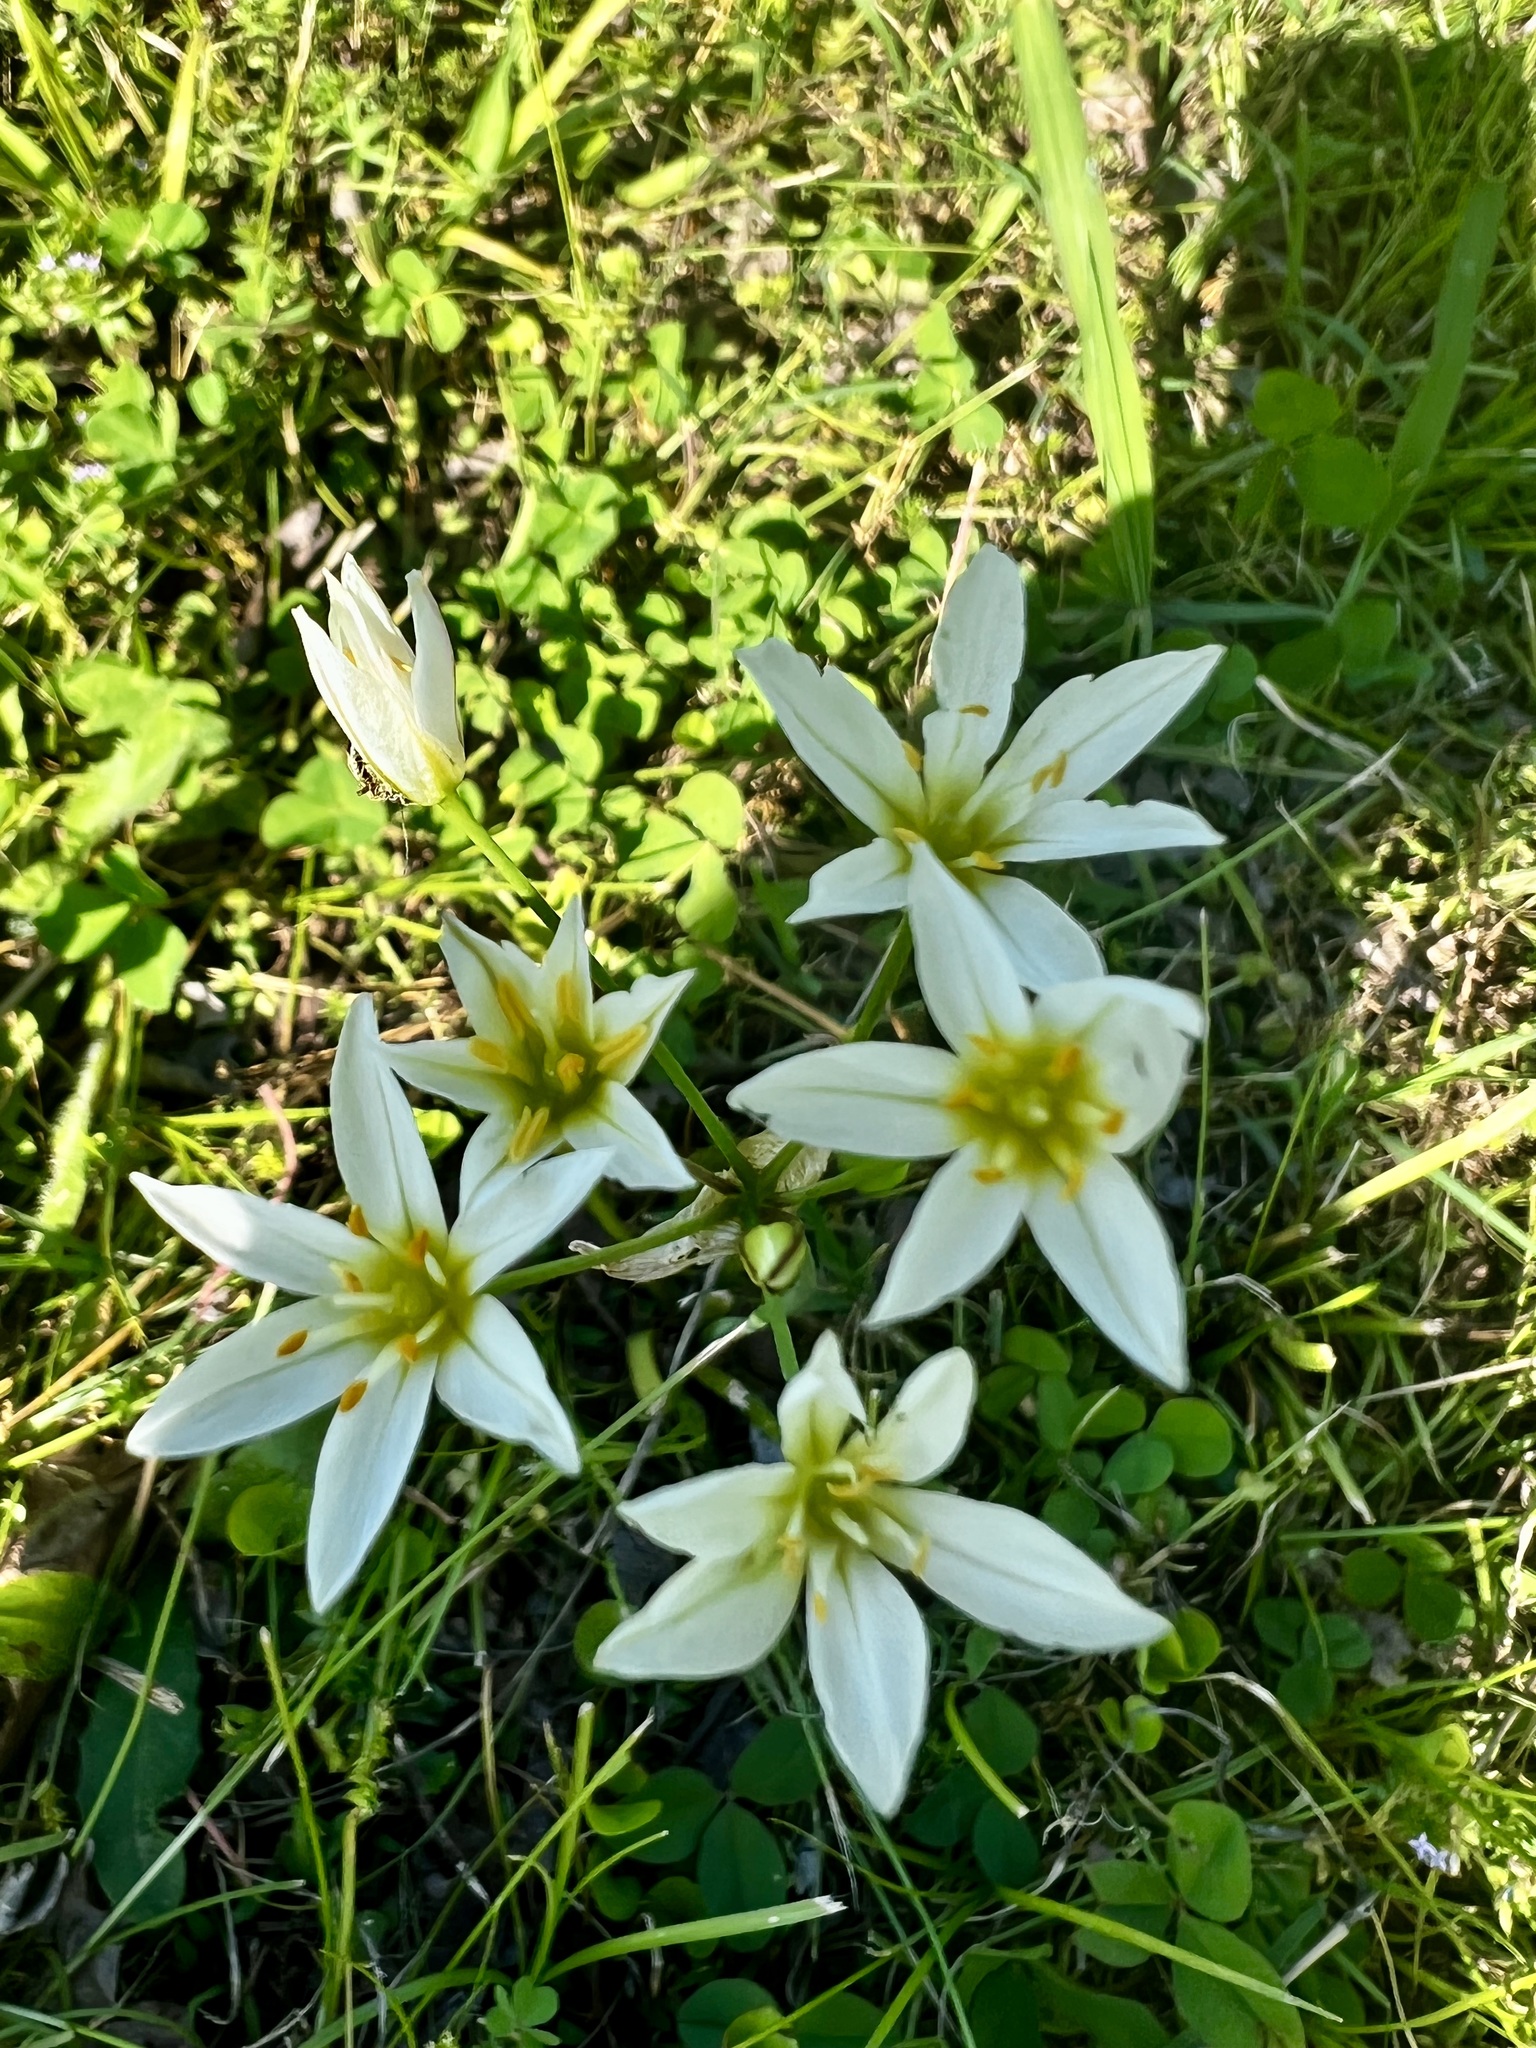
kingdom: Plantae
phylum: Tracheophyta
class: Liliopsida
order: Asparagales
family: Amaryllidaceae
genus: Nothoscordum
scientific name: Nothoscordum bivalve
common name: Crow-poison
